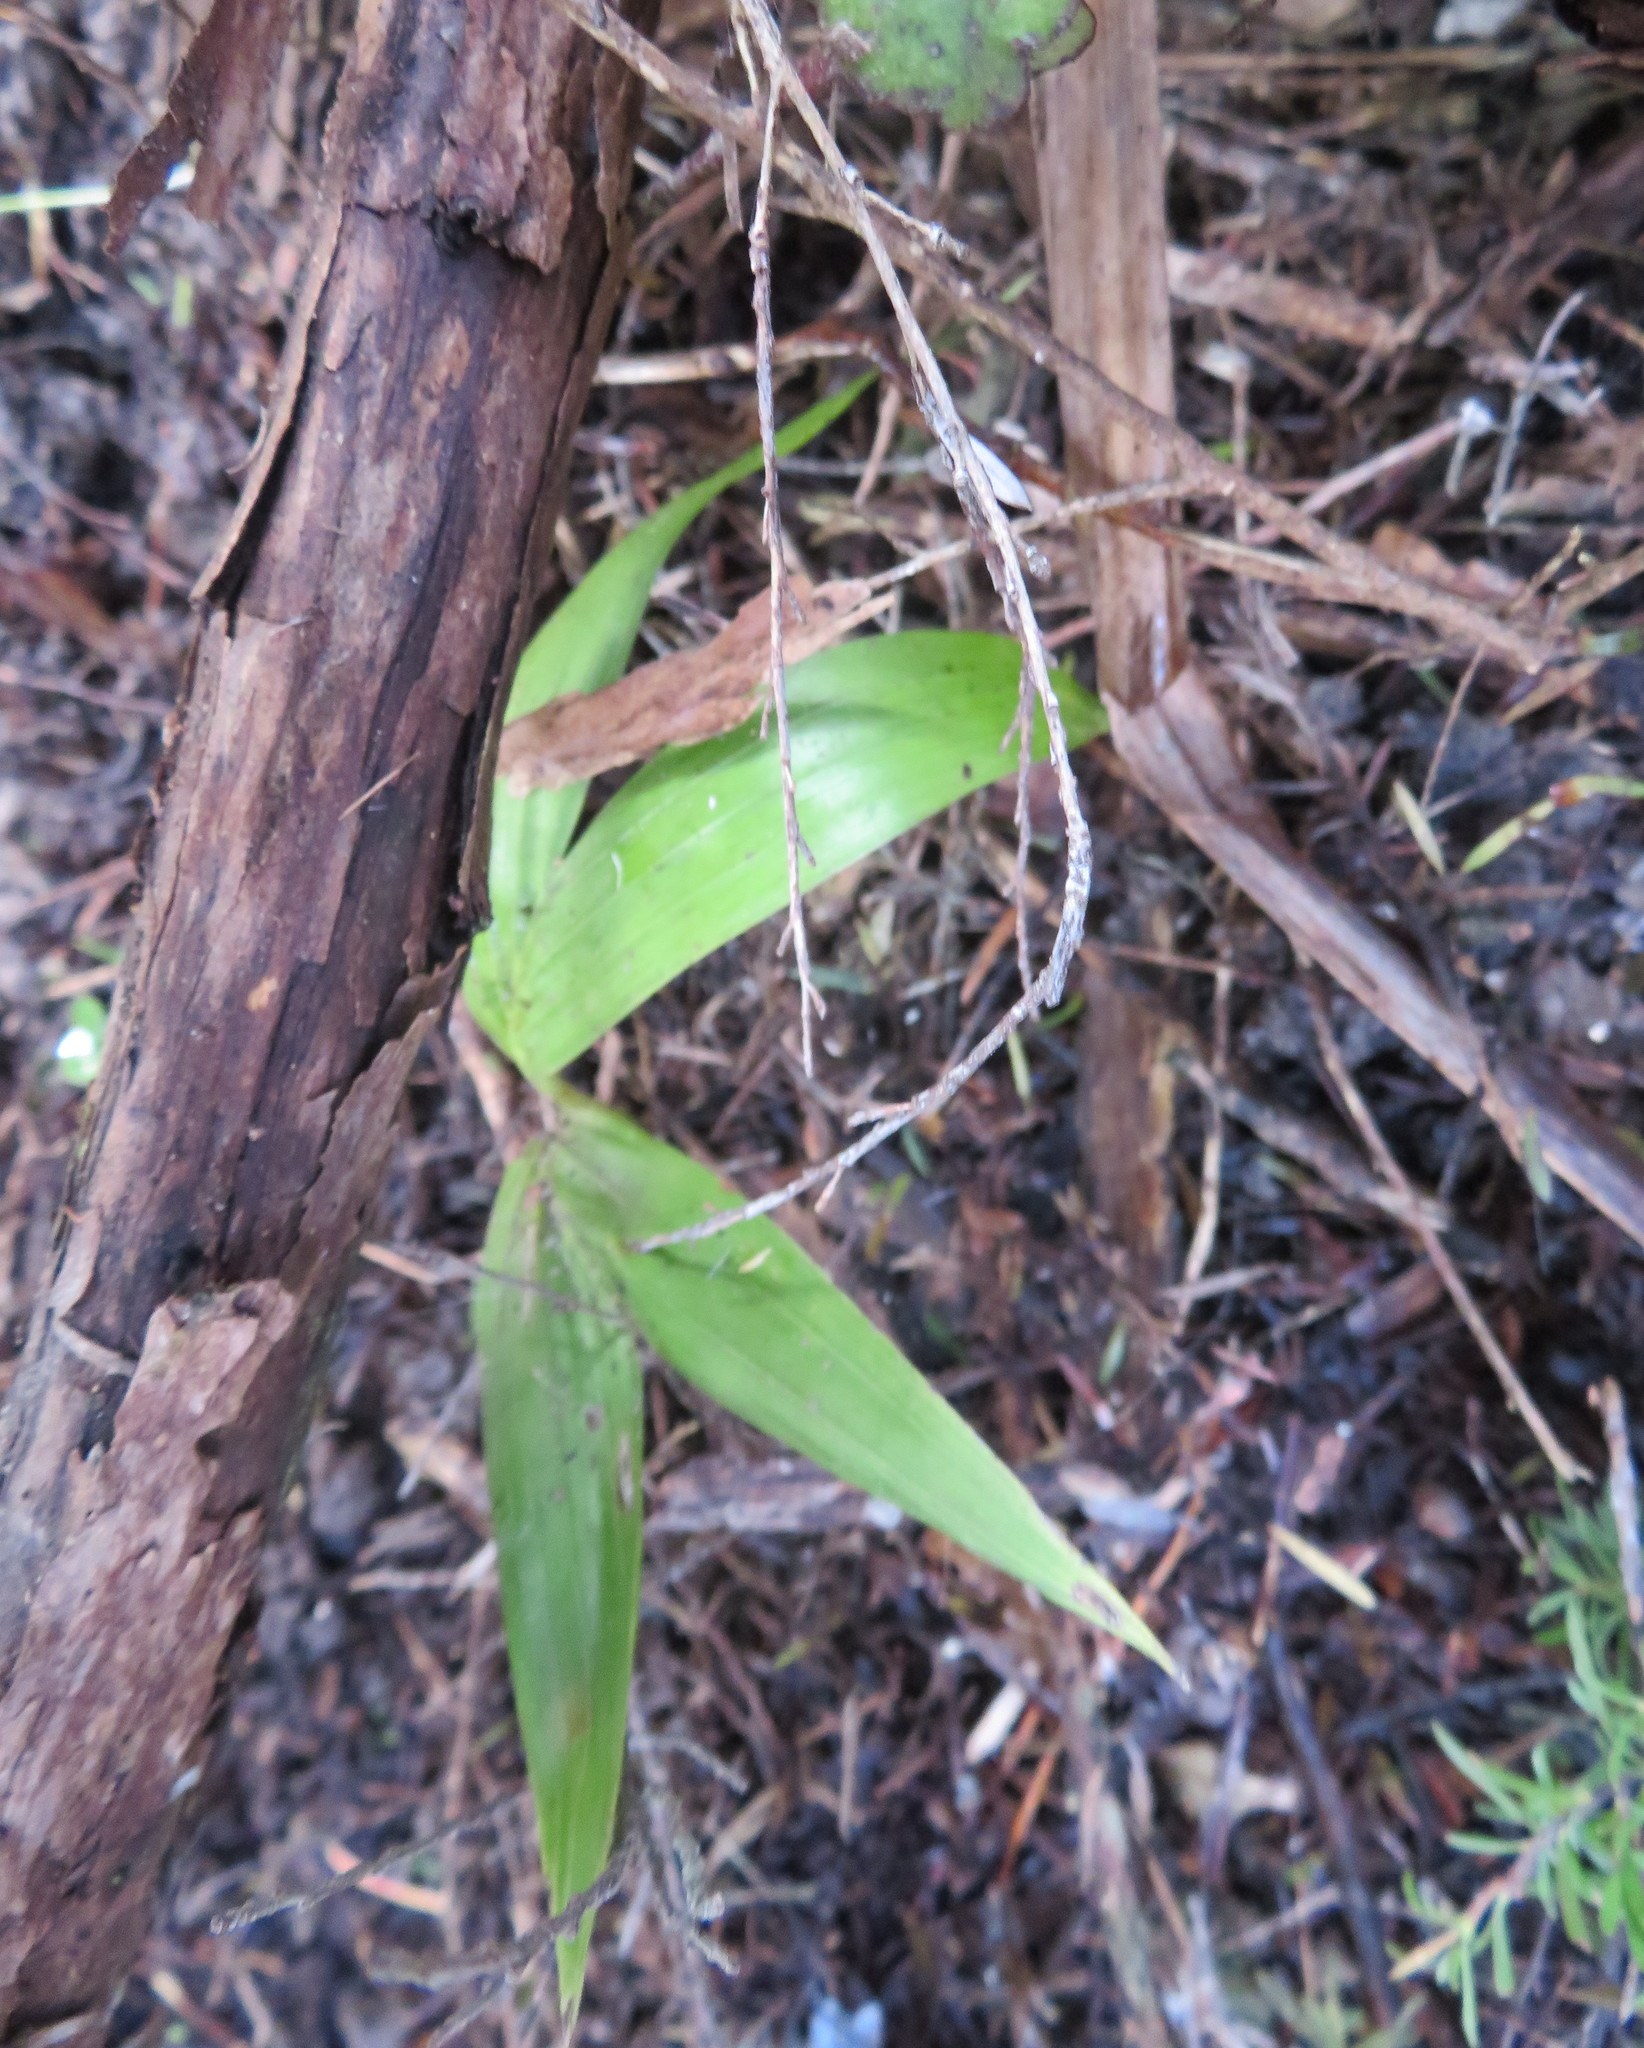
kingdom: Plantae
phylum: Tracheophyta
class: Liliopsida
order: Arecales
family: Arecaceae
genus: Archontophoenix
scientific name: Archontophoenix cunninghamiana
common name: Piccabeen bangalow palm
